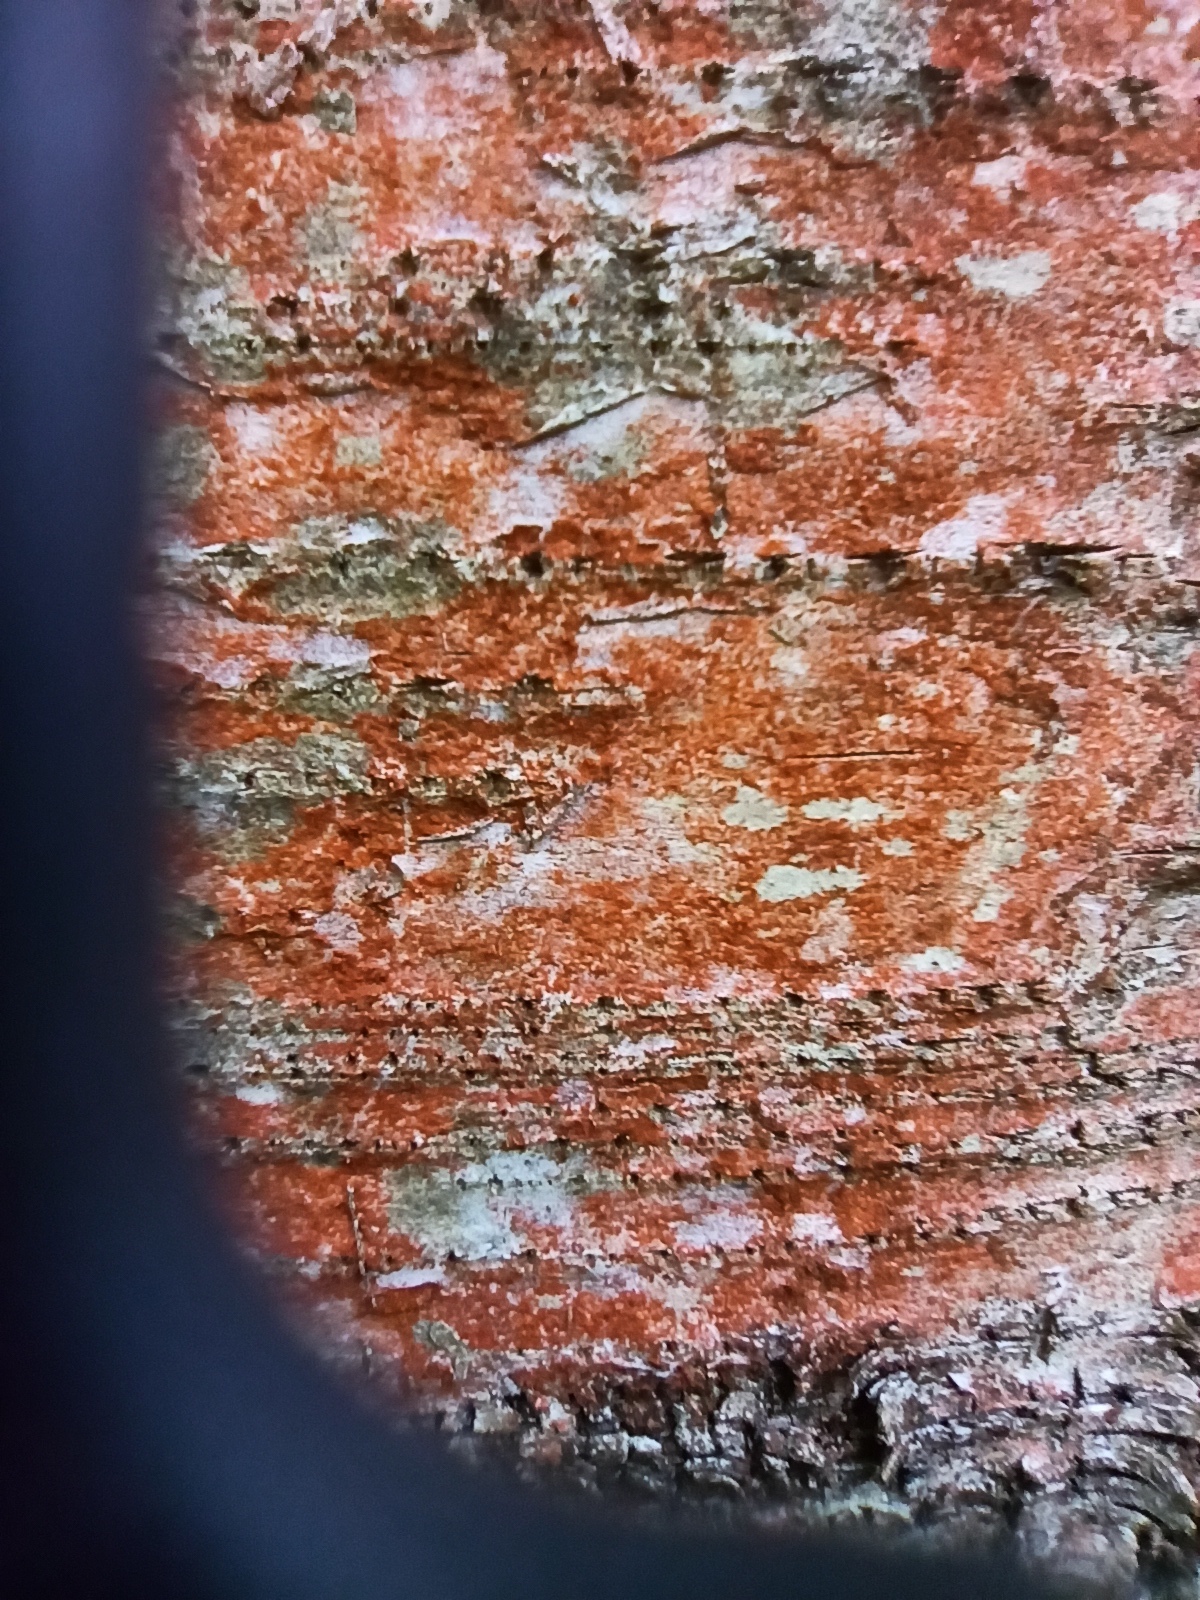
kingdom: Plantae
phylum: Chlorophyta
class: Ulvophyceae
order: Trentepohliales
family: Trentepohliaceae
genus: Trentepohlia
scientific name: Trentepohlia
